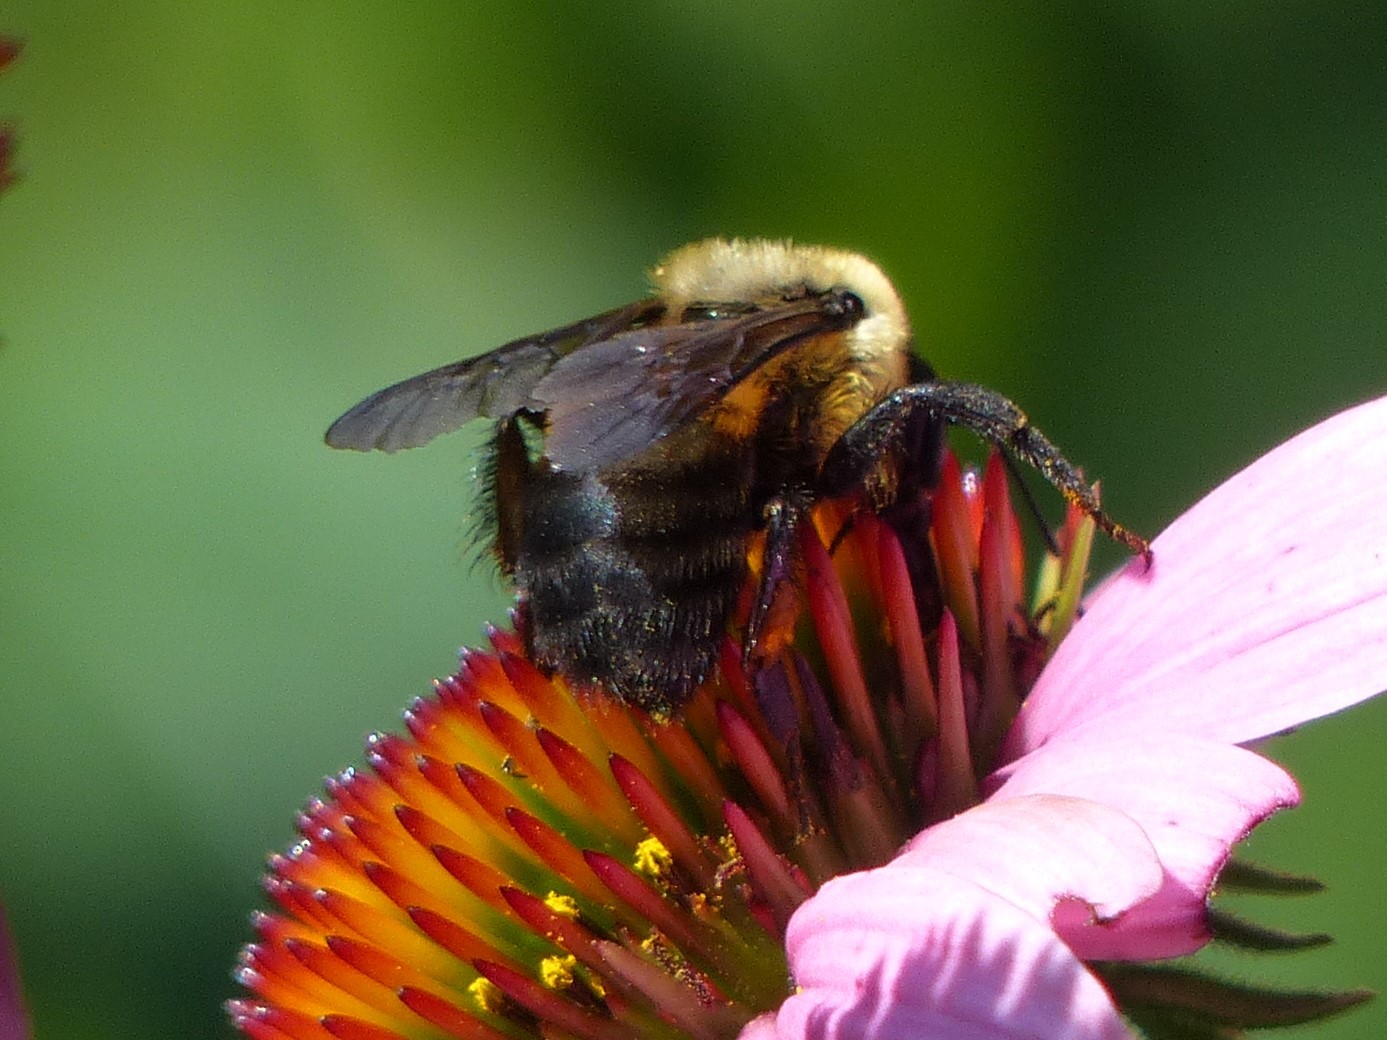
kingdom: Animalia
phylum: Arthropoda
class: Insecta
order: Hymenoptera
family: Apidae
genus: Bombus
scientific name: Bombus griseocollis
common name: Brown-belted bumble bee
